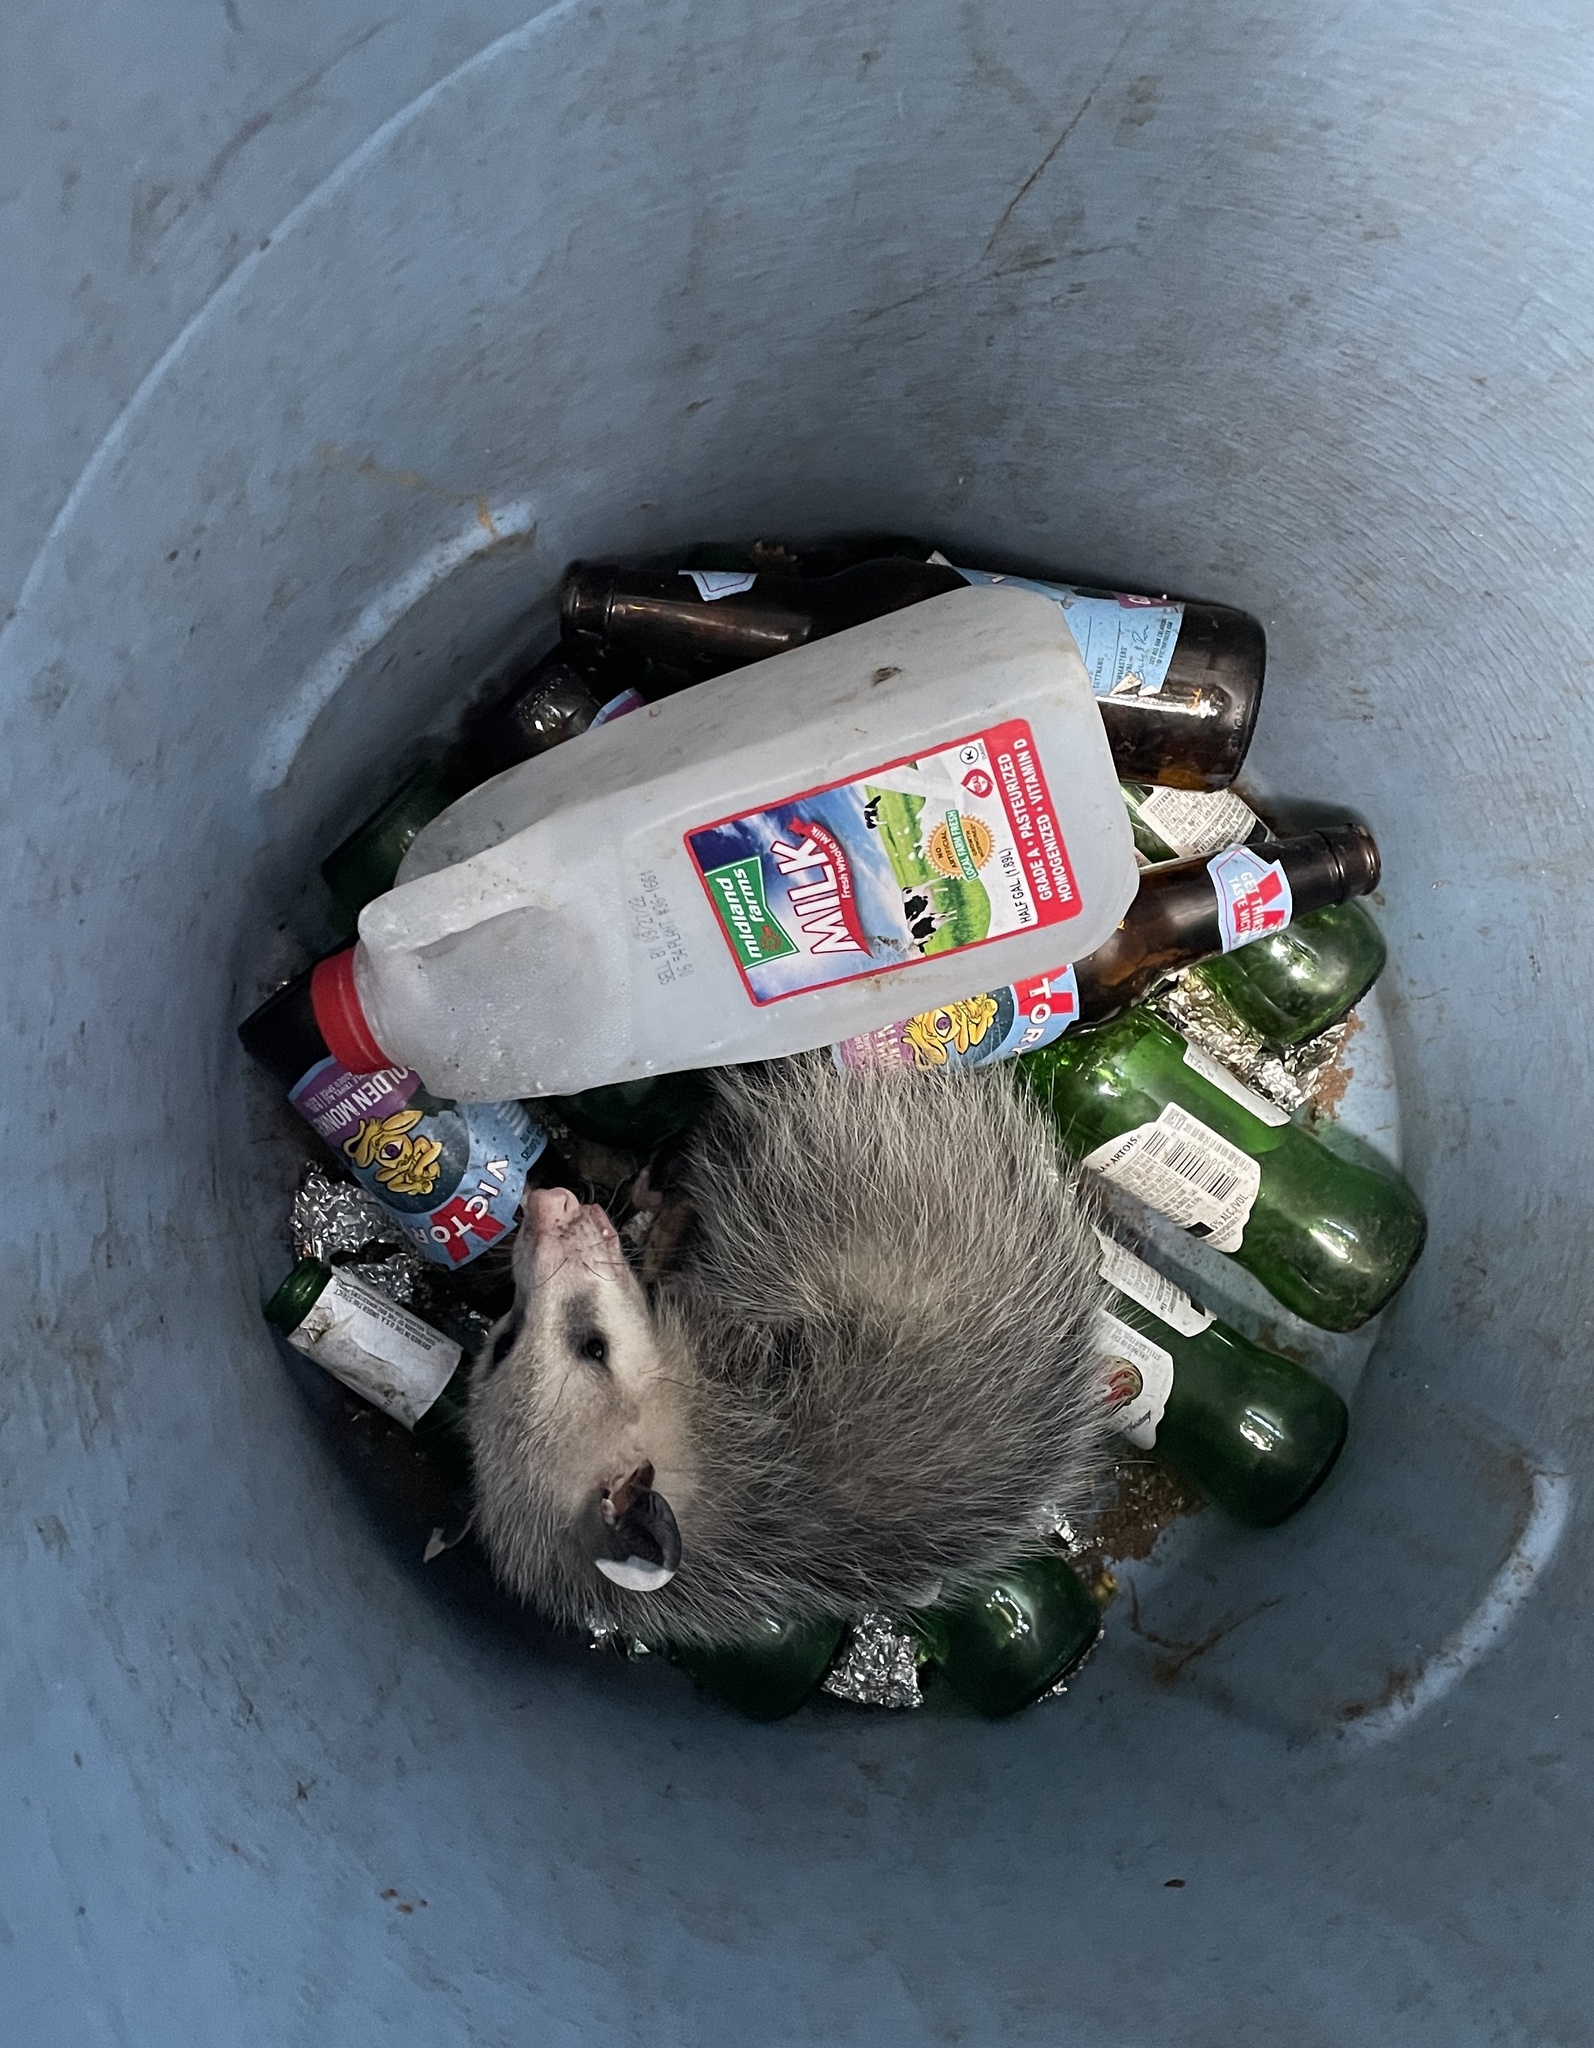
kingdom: Animalia
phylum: Chordata
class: Mammalia
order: Didelphimorphia
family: Didelphidae
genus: Didelphis
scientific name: Didelphis virginiana
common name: Virginia opossum
